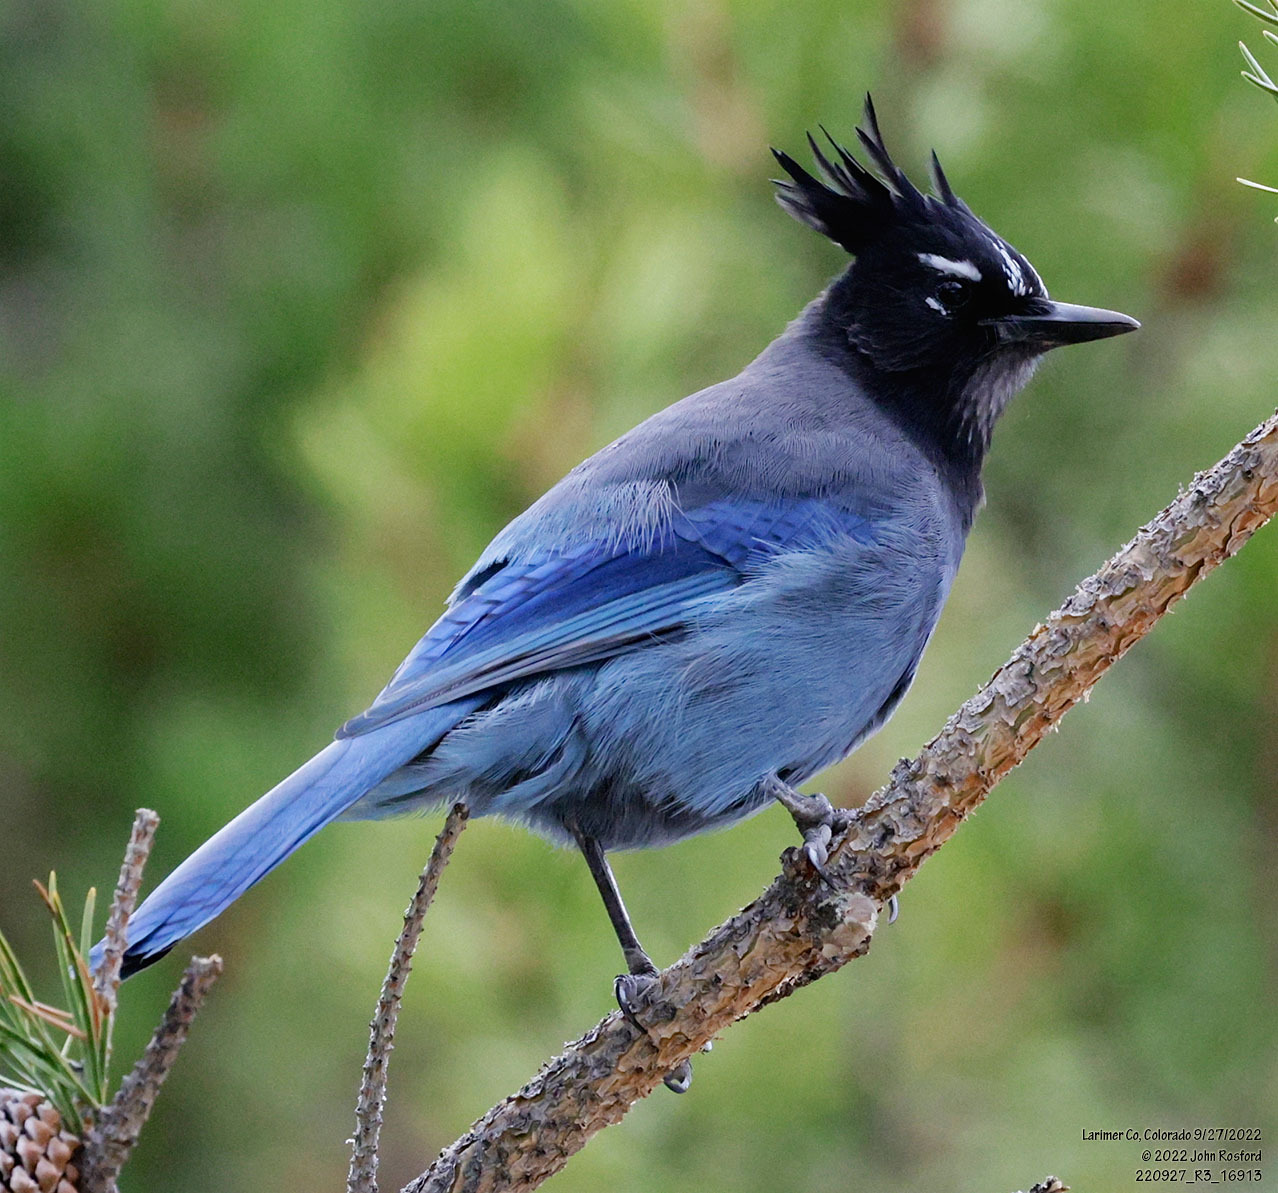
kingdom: Animalia
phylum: Chordata
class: Aves
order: Passeriformes
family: Corvidae
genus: Cyanocitta
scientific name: Cyanocitta stelleri
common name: Steller's jay
